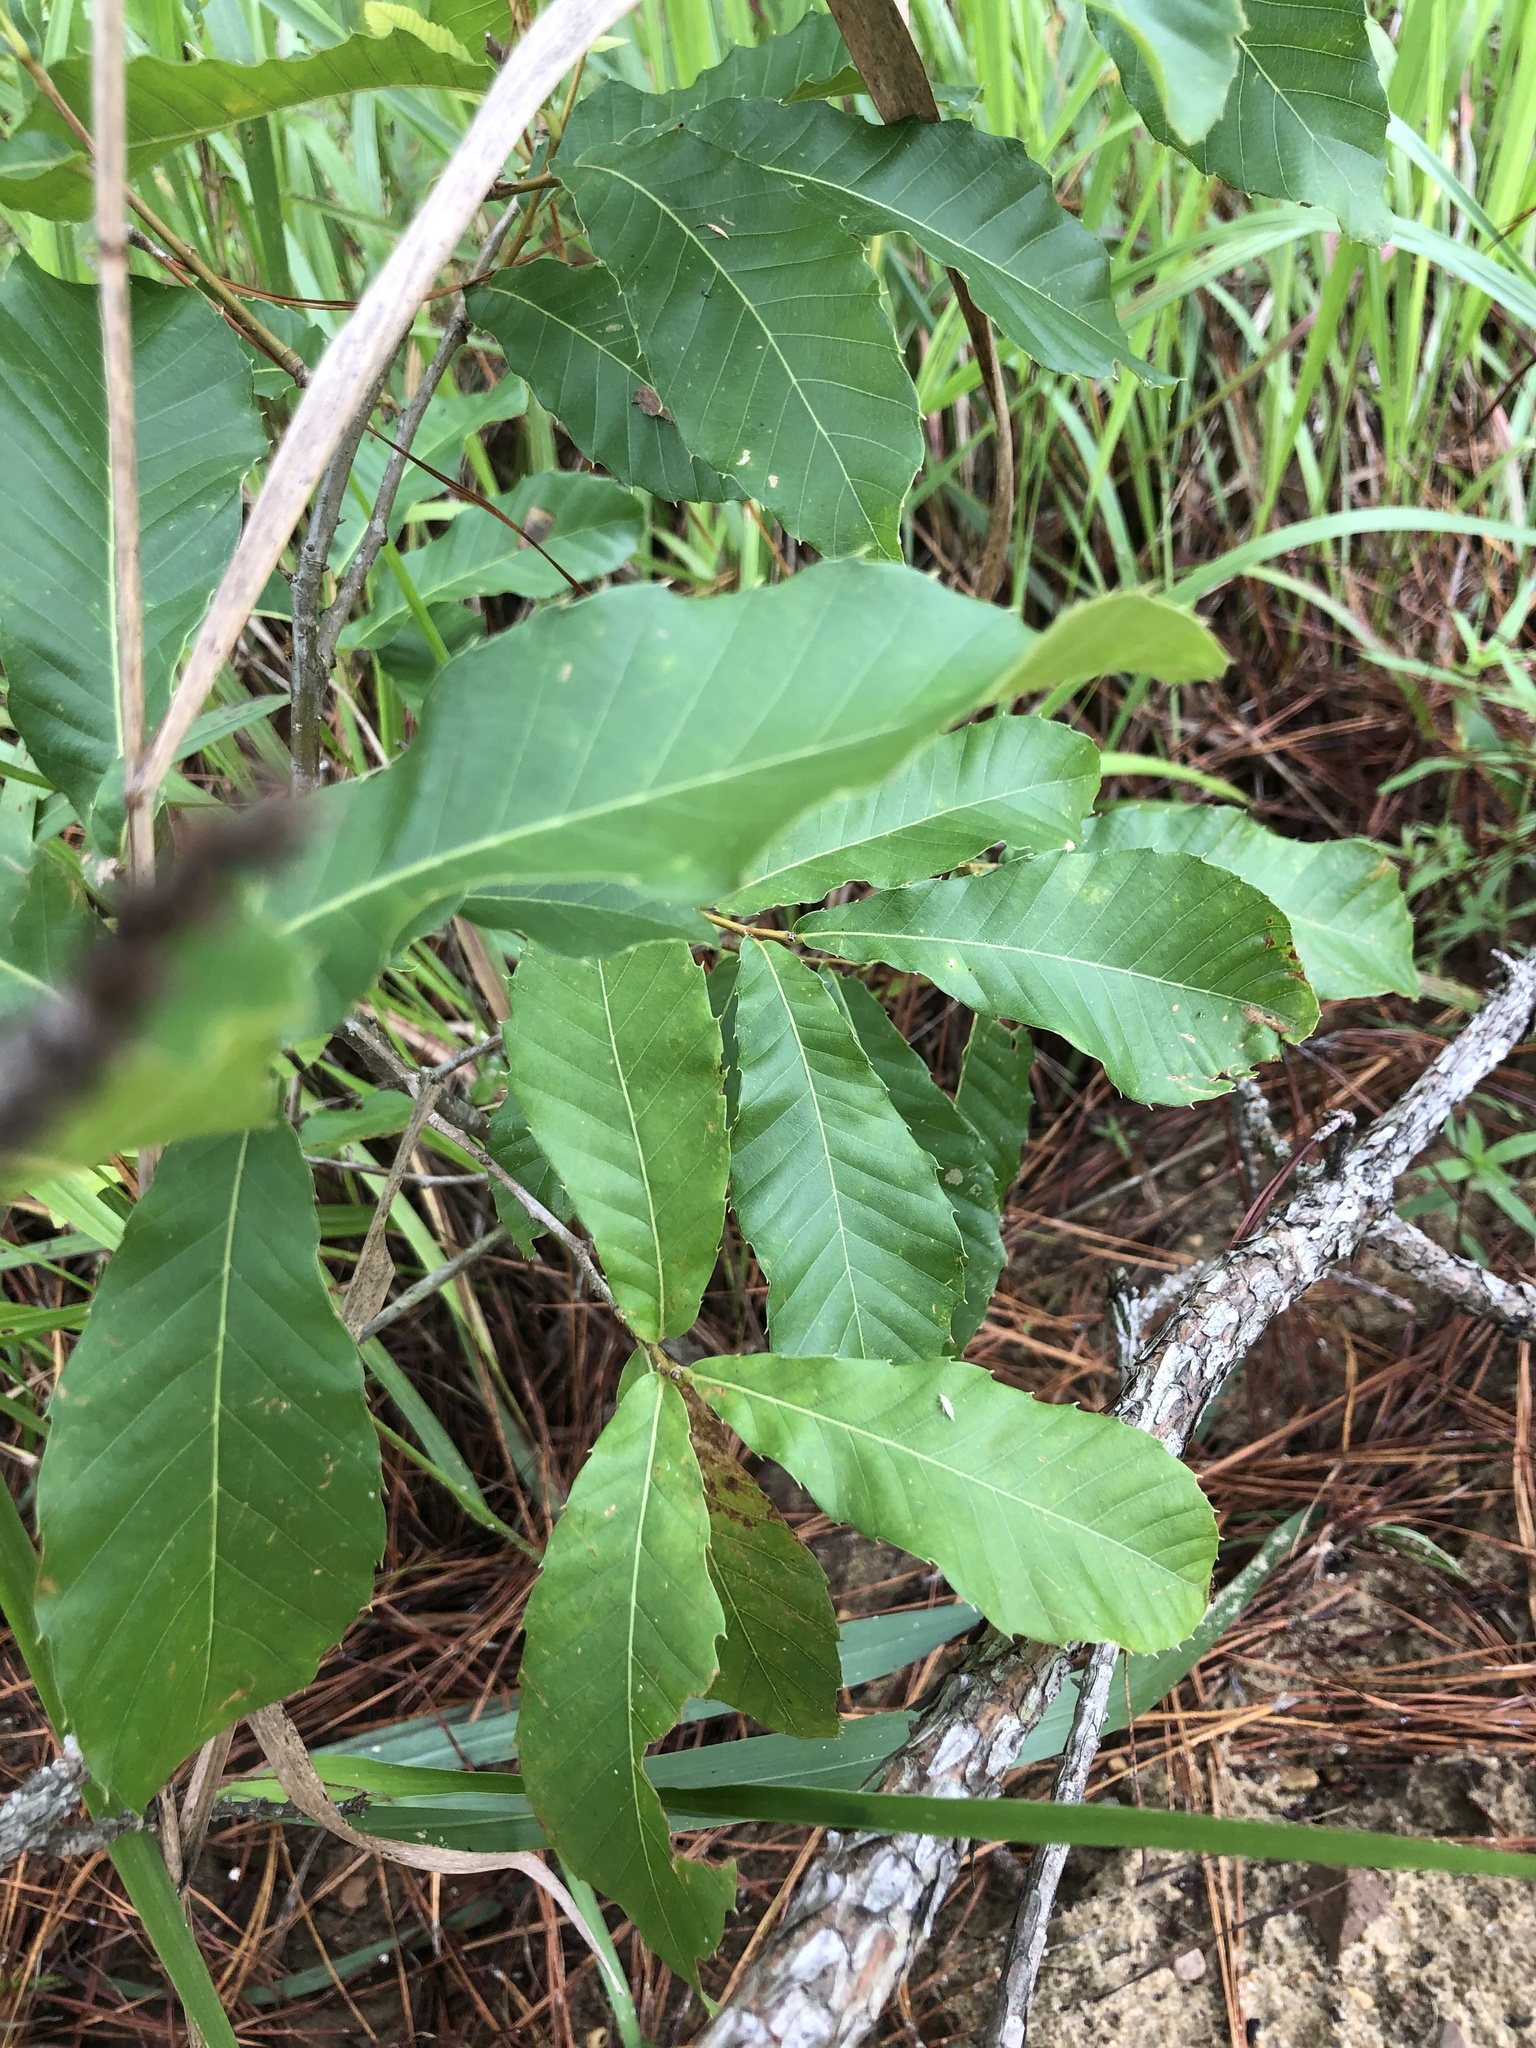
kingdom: Plantae
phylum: Tracheophyta
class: Magnoliopsida
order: Fagales
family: Fagaceae
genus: Castanea
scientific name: Castanea pumila
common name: Chinkapin
